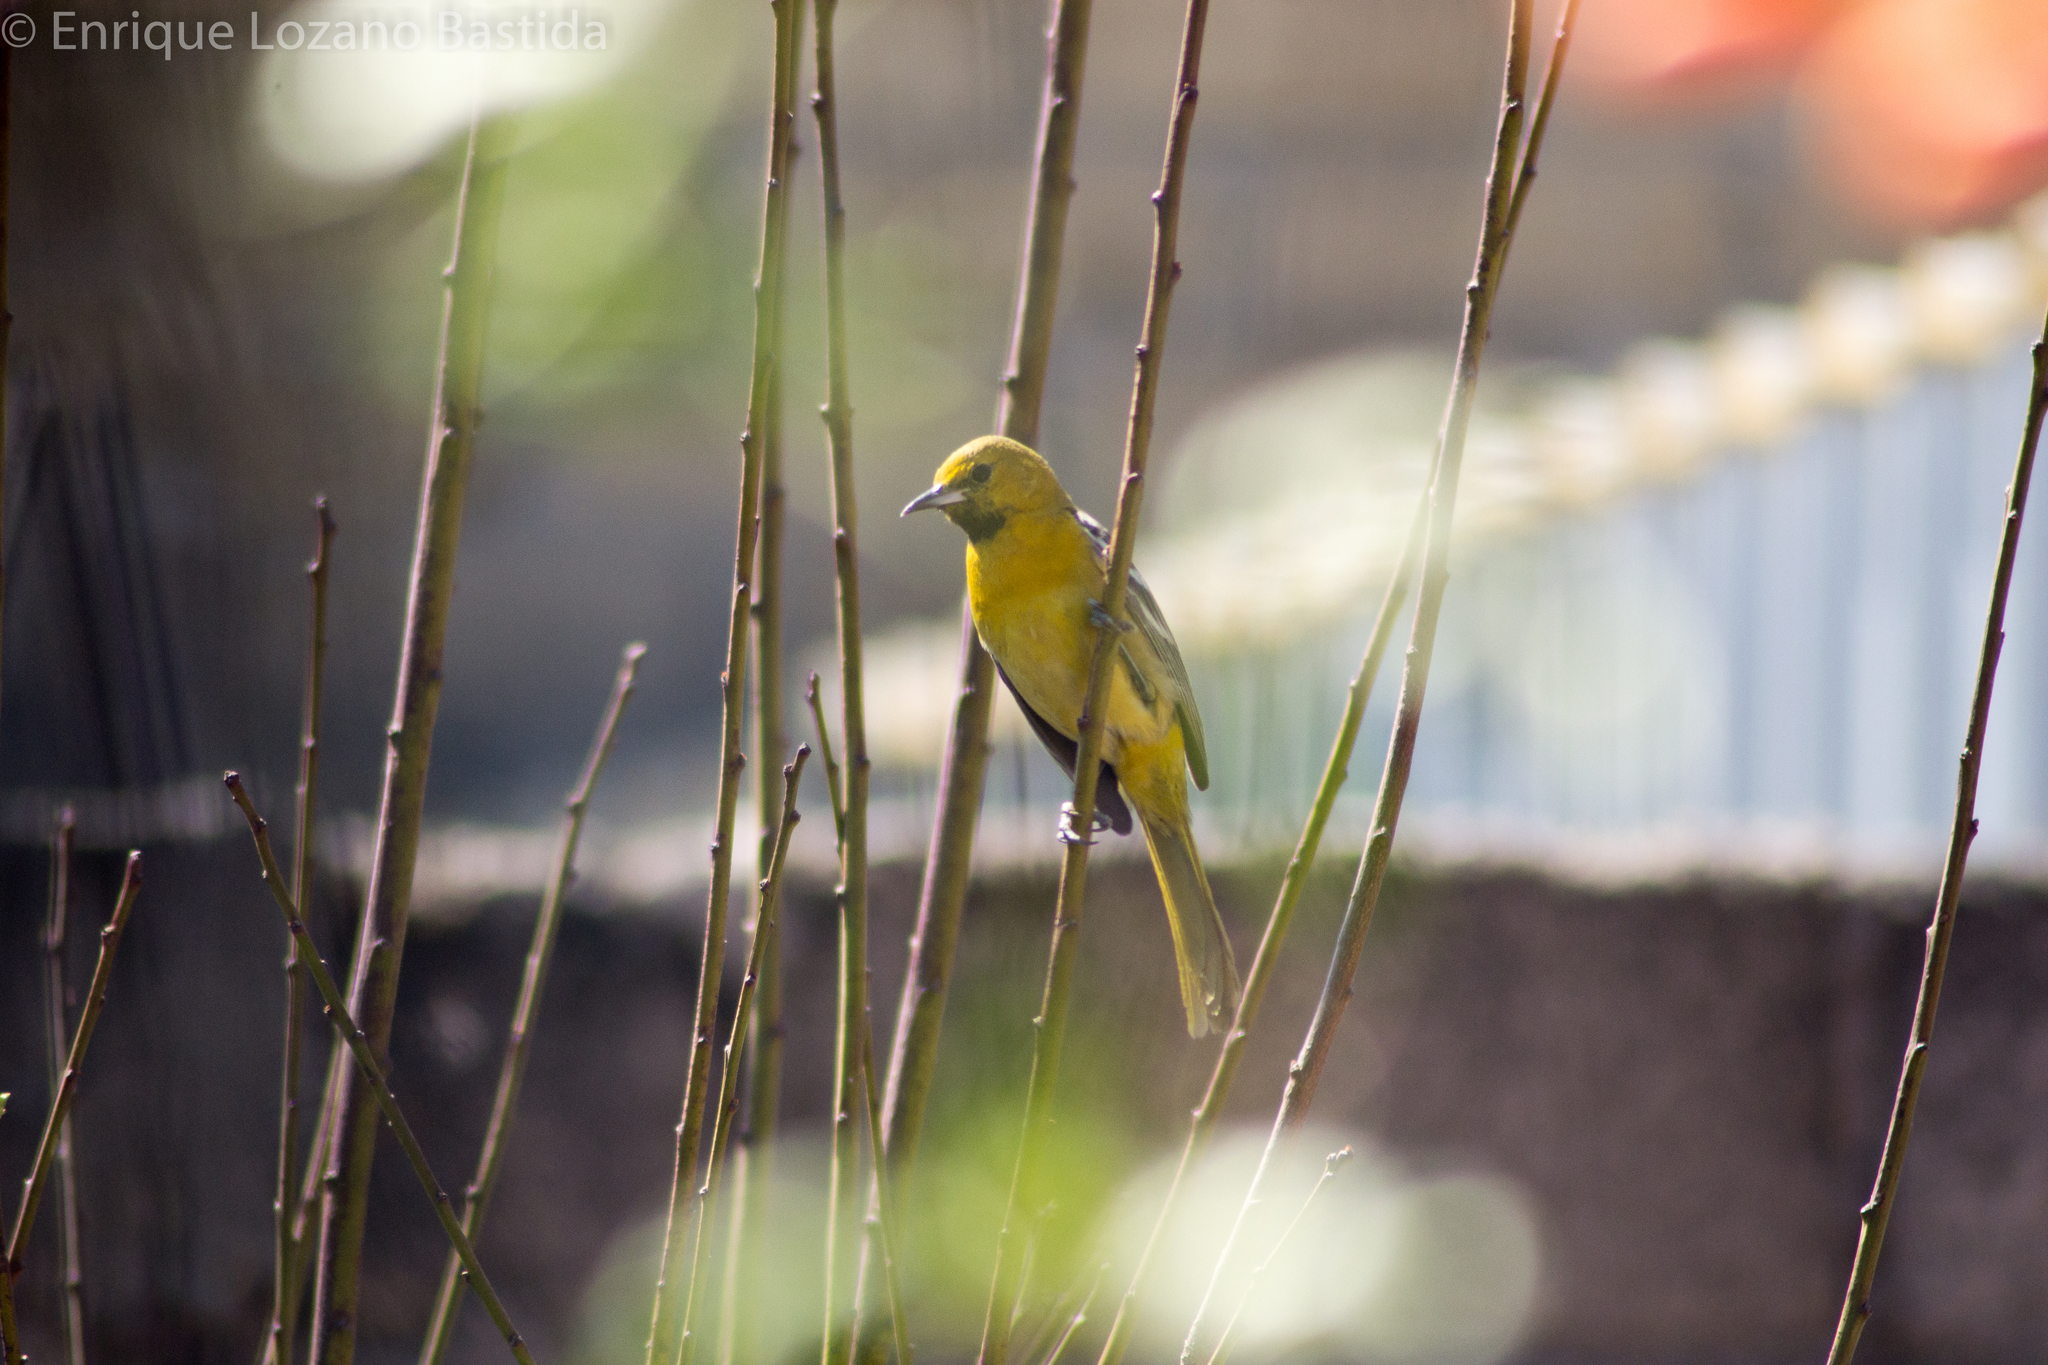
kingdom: Animalia
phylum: Chordata
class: Aves
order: Passeriformes
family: Icteridae
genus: Icterus
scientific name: Icterus cucullatus
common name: Hooded oriole
